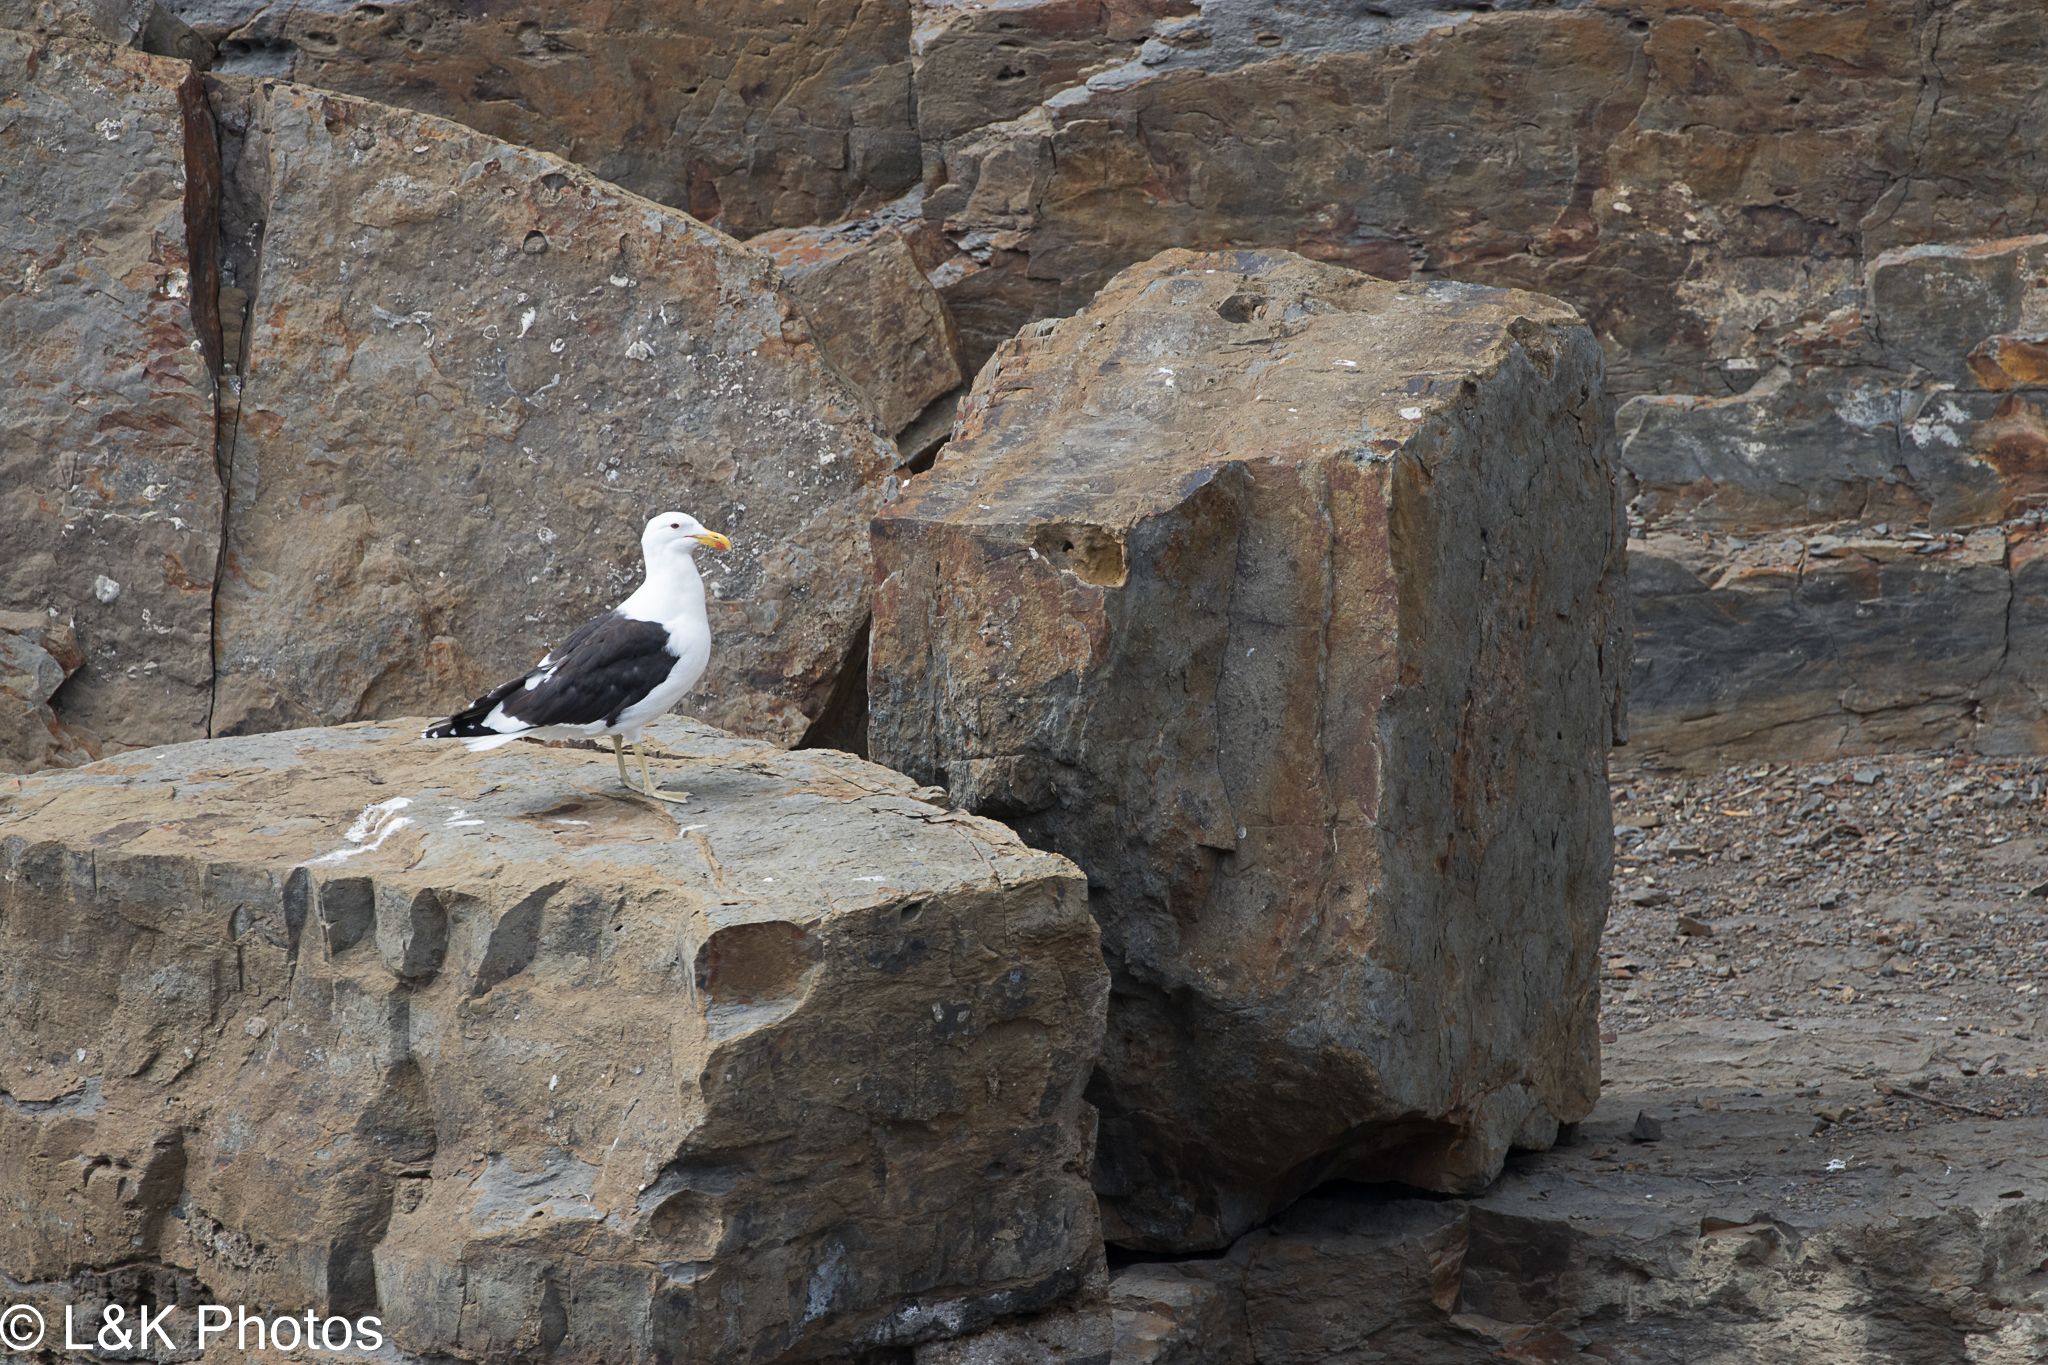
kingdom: Animalia
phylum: Chordata
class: Aves
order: Charadriiformes
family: Laridae
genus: Larus
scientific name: Larus dominicanus
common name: Kelp gull
